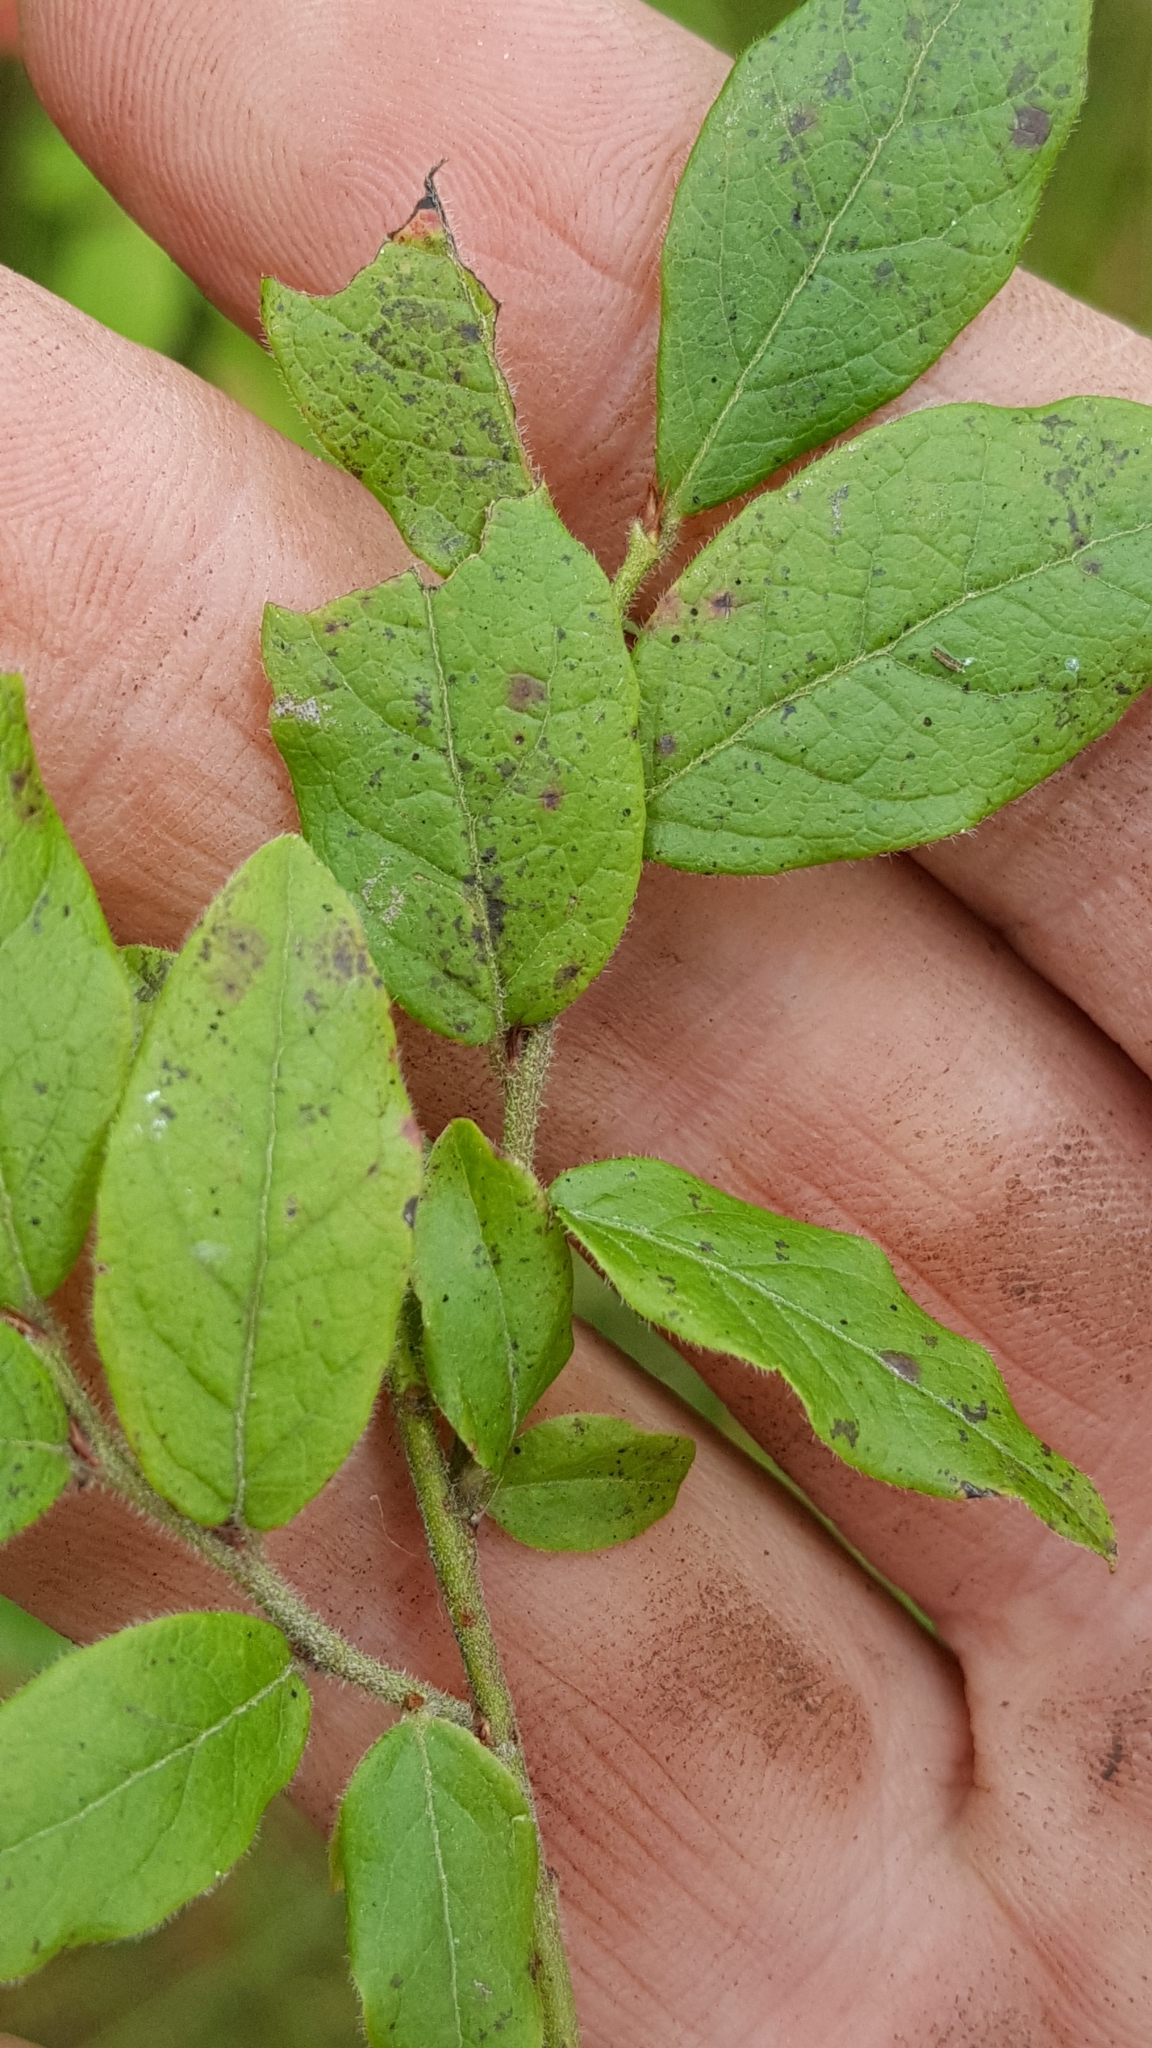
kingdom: Plantae
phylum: Tracheophyta
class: Magnoliopsida
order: Ericales
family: Ericaceae
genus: Vaccinium
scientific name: Vaccinium myrtilloides
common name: Canada blueberry
